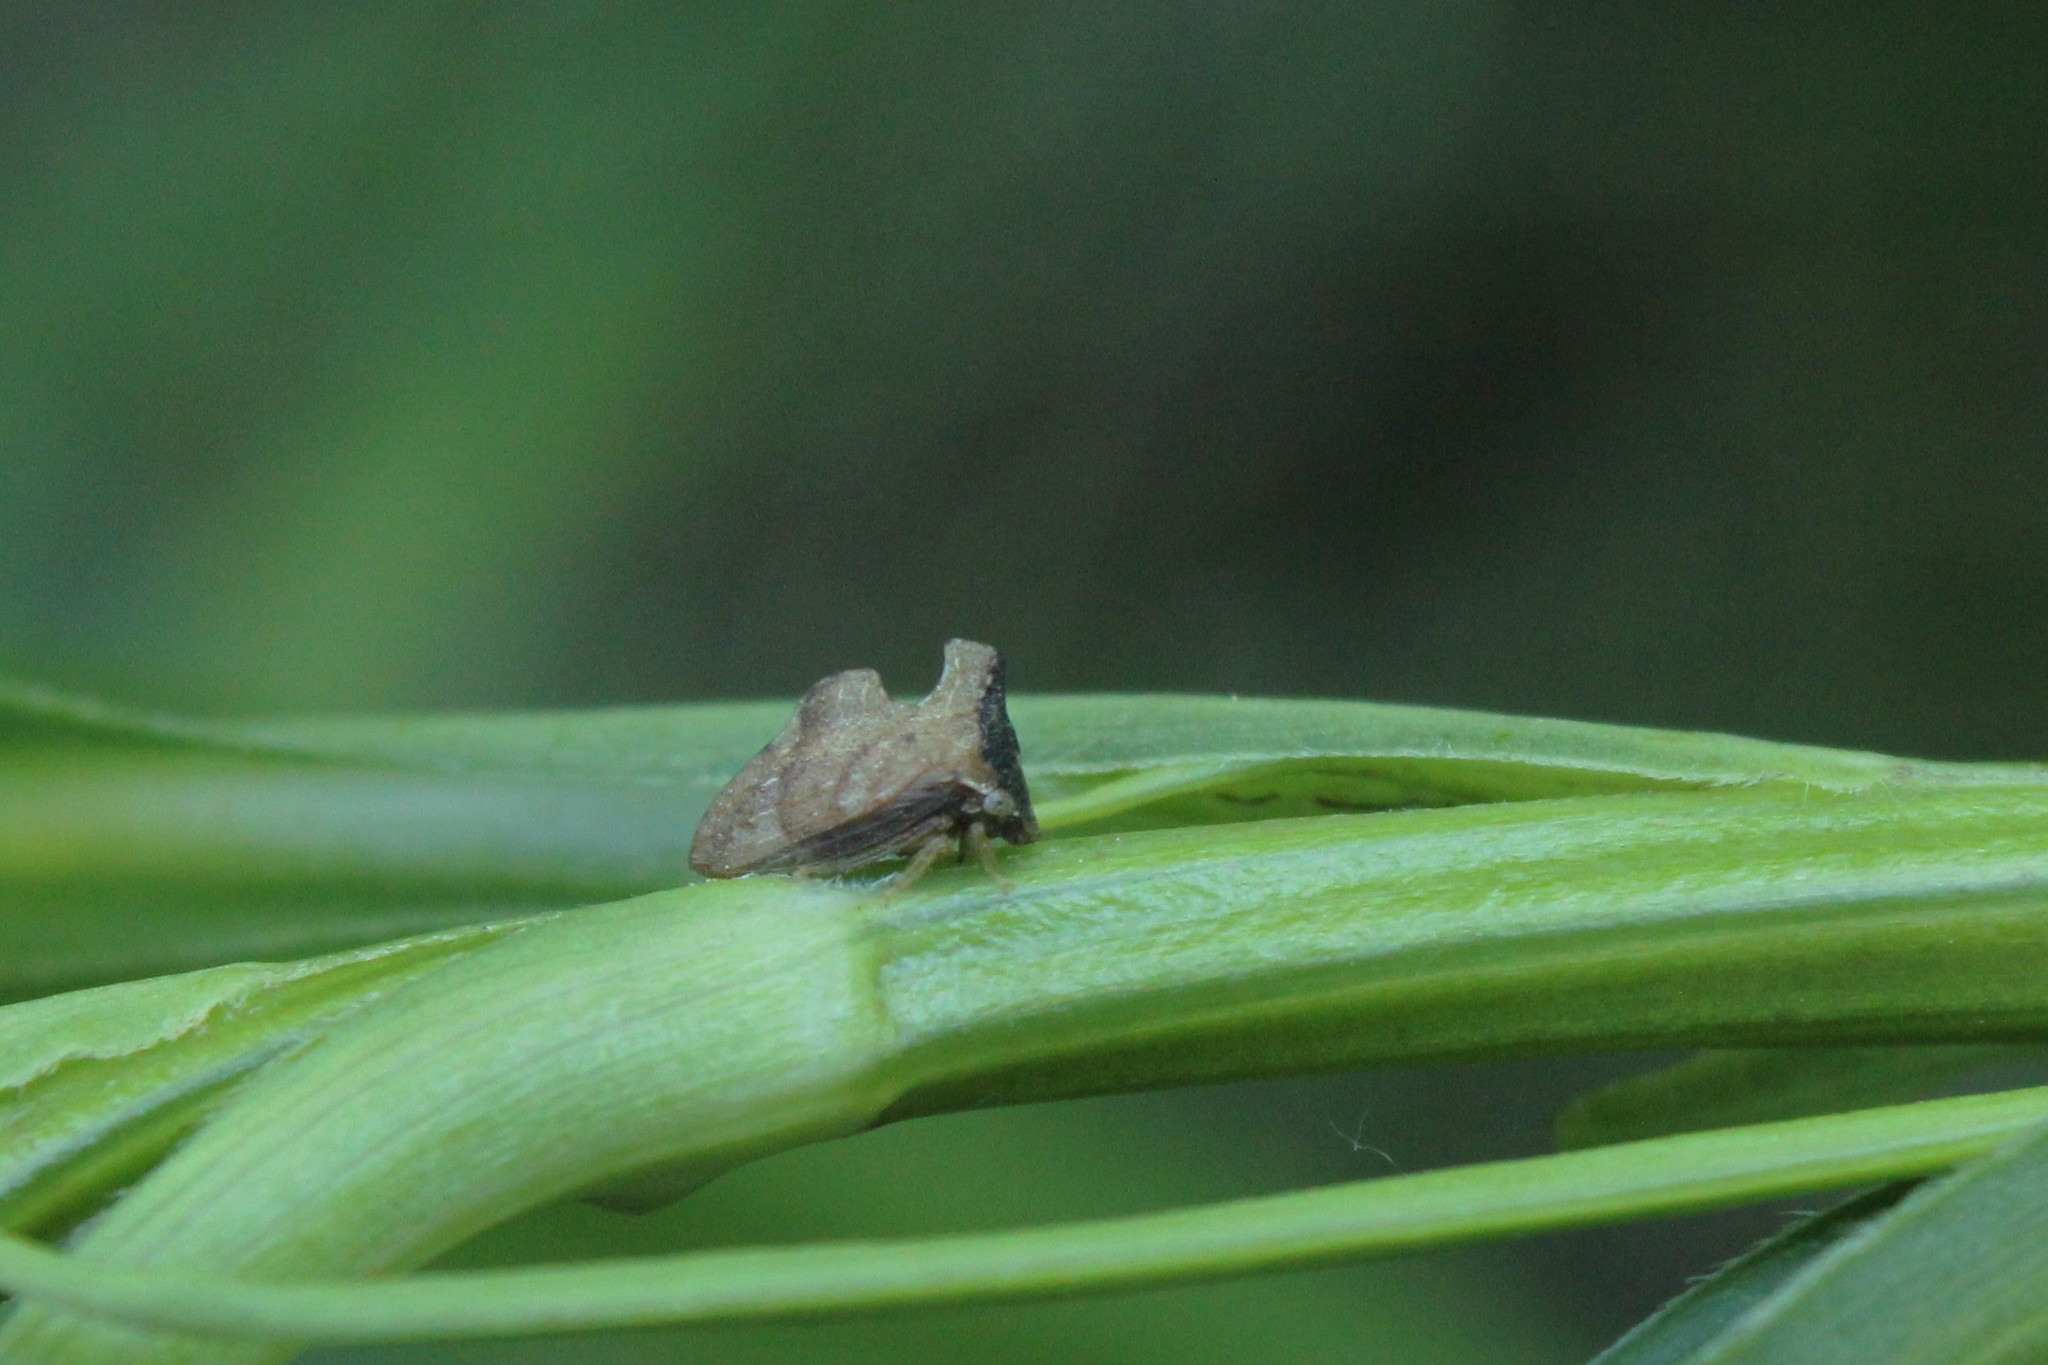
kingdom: Animalia
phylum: Arthropoda
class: Insecta
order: Hemiptera
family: Membracidae
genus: Entylia
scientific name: Entylia carinata
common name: Keeled treehopper
